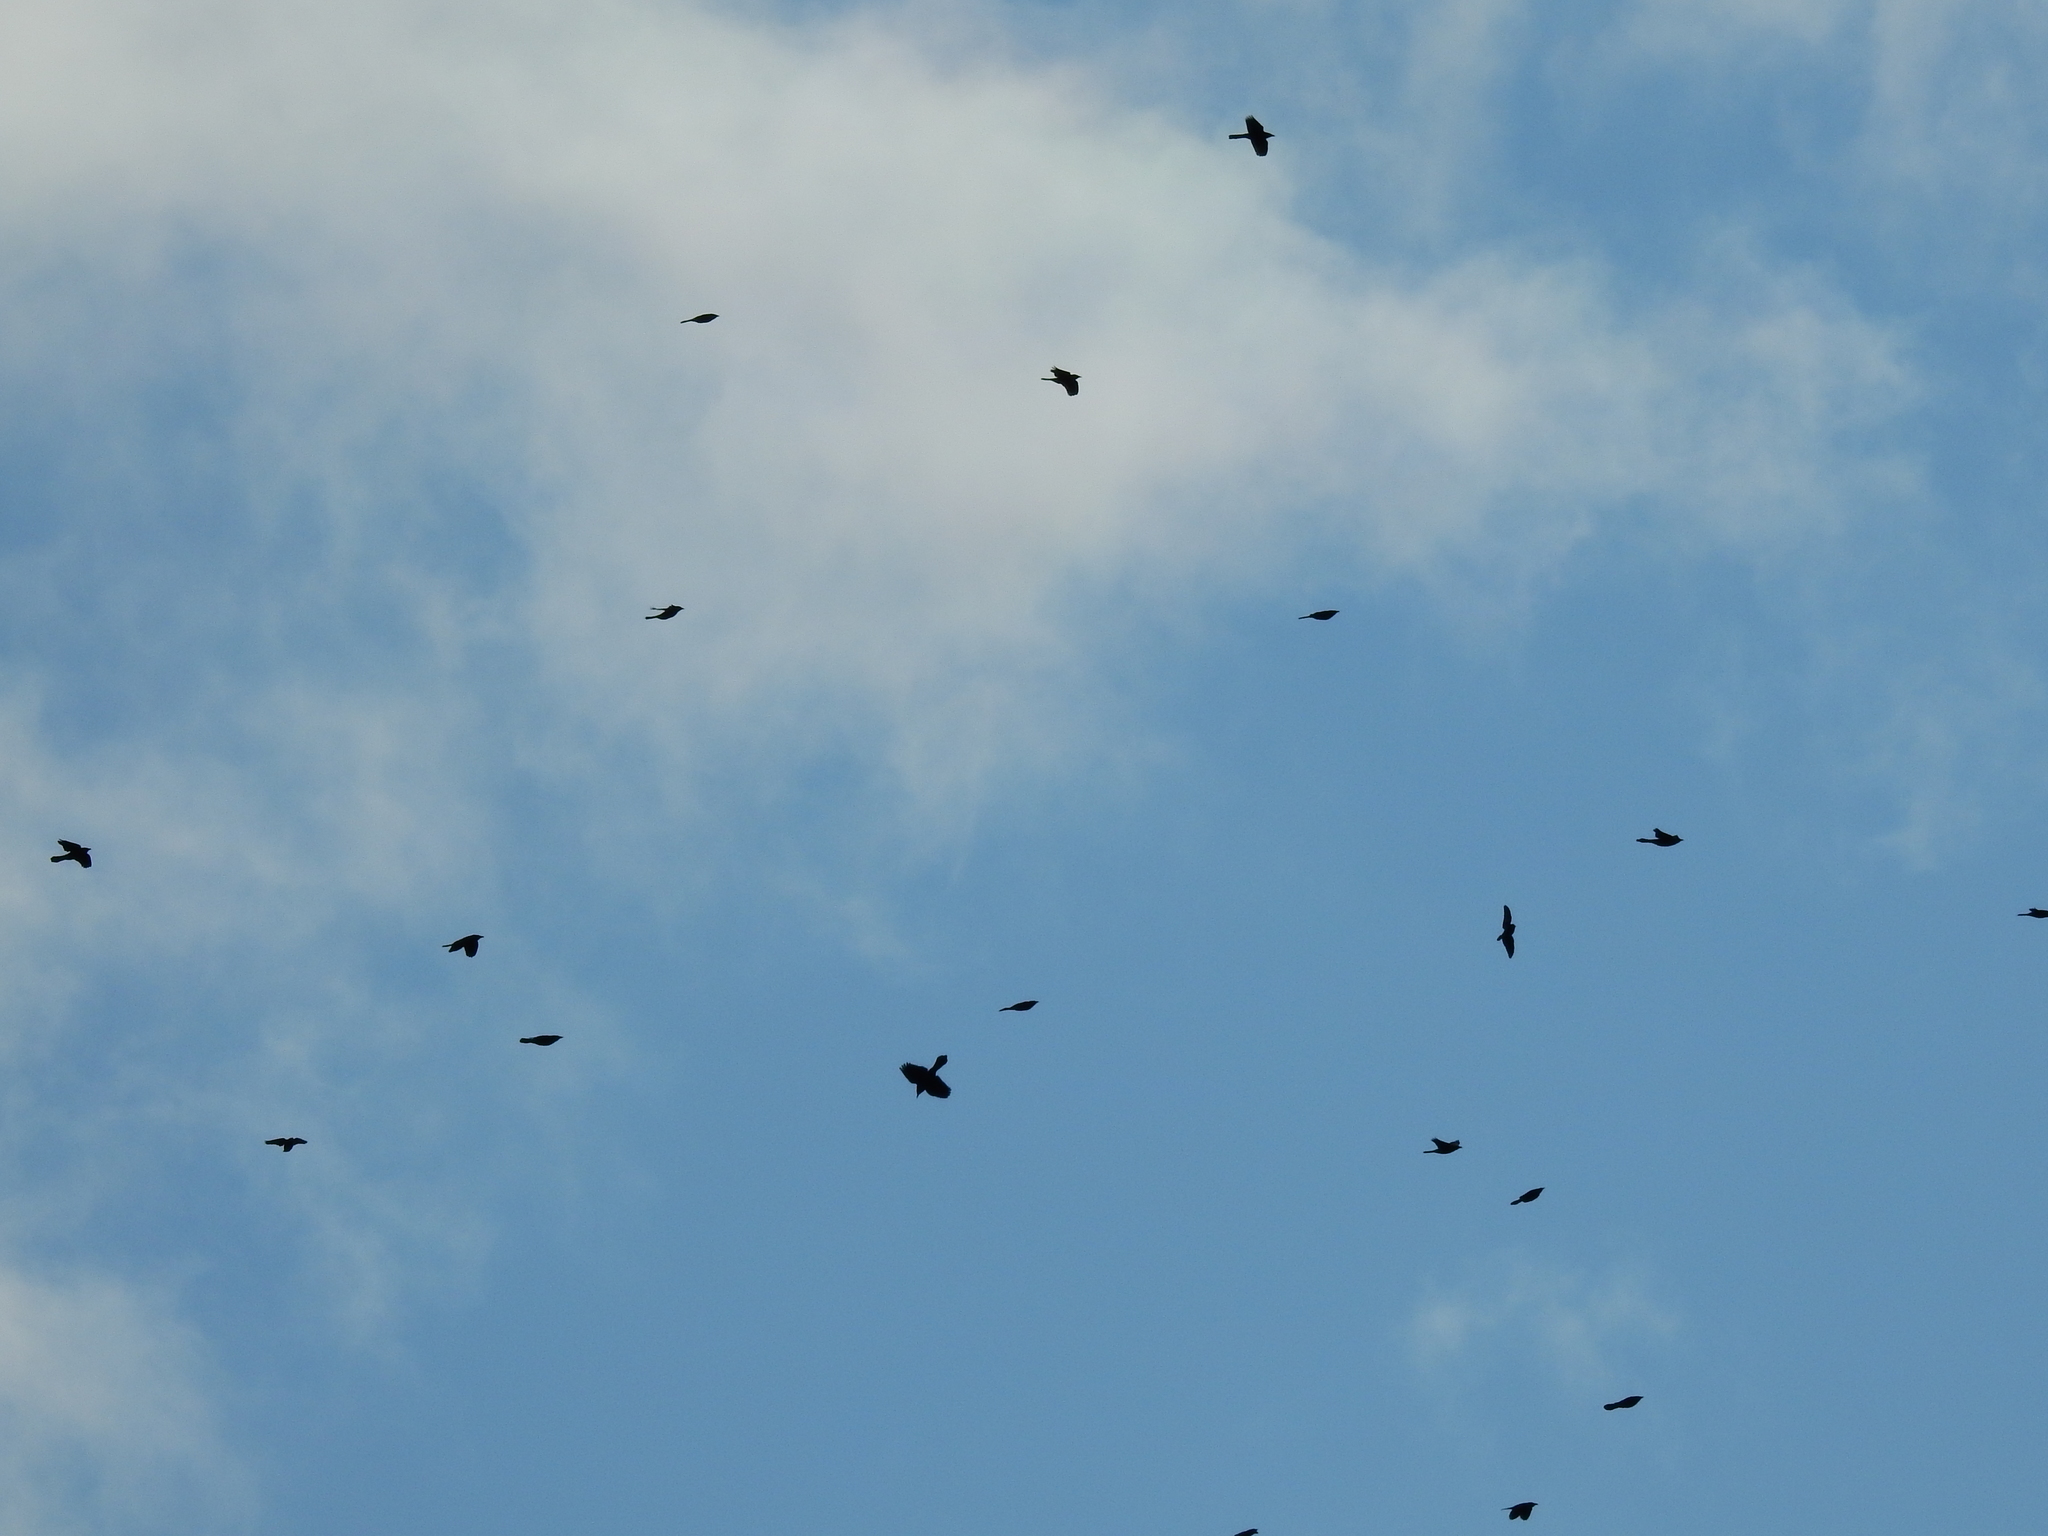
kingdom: Animalia
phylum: Chordata
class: Aves
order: Passeriformes
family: Icteridae
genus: Quiscalus
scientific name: Quiscalus quiscula
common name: Common grackle
